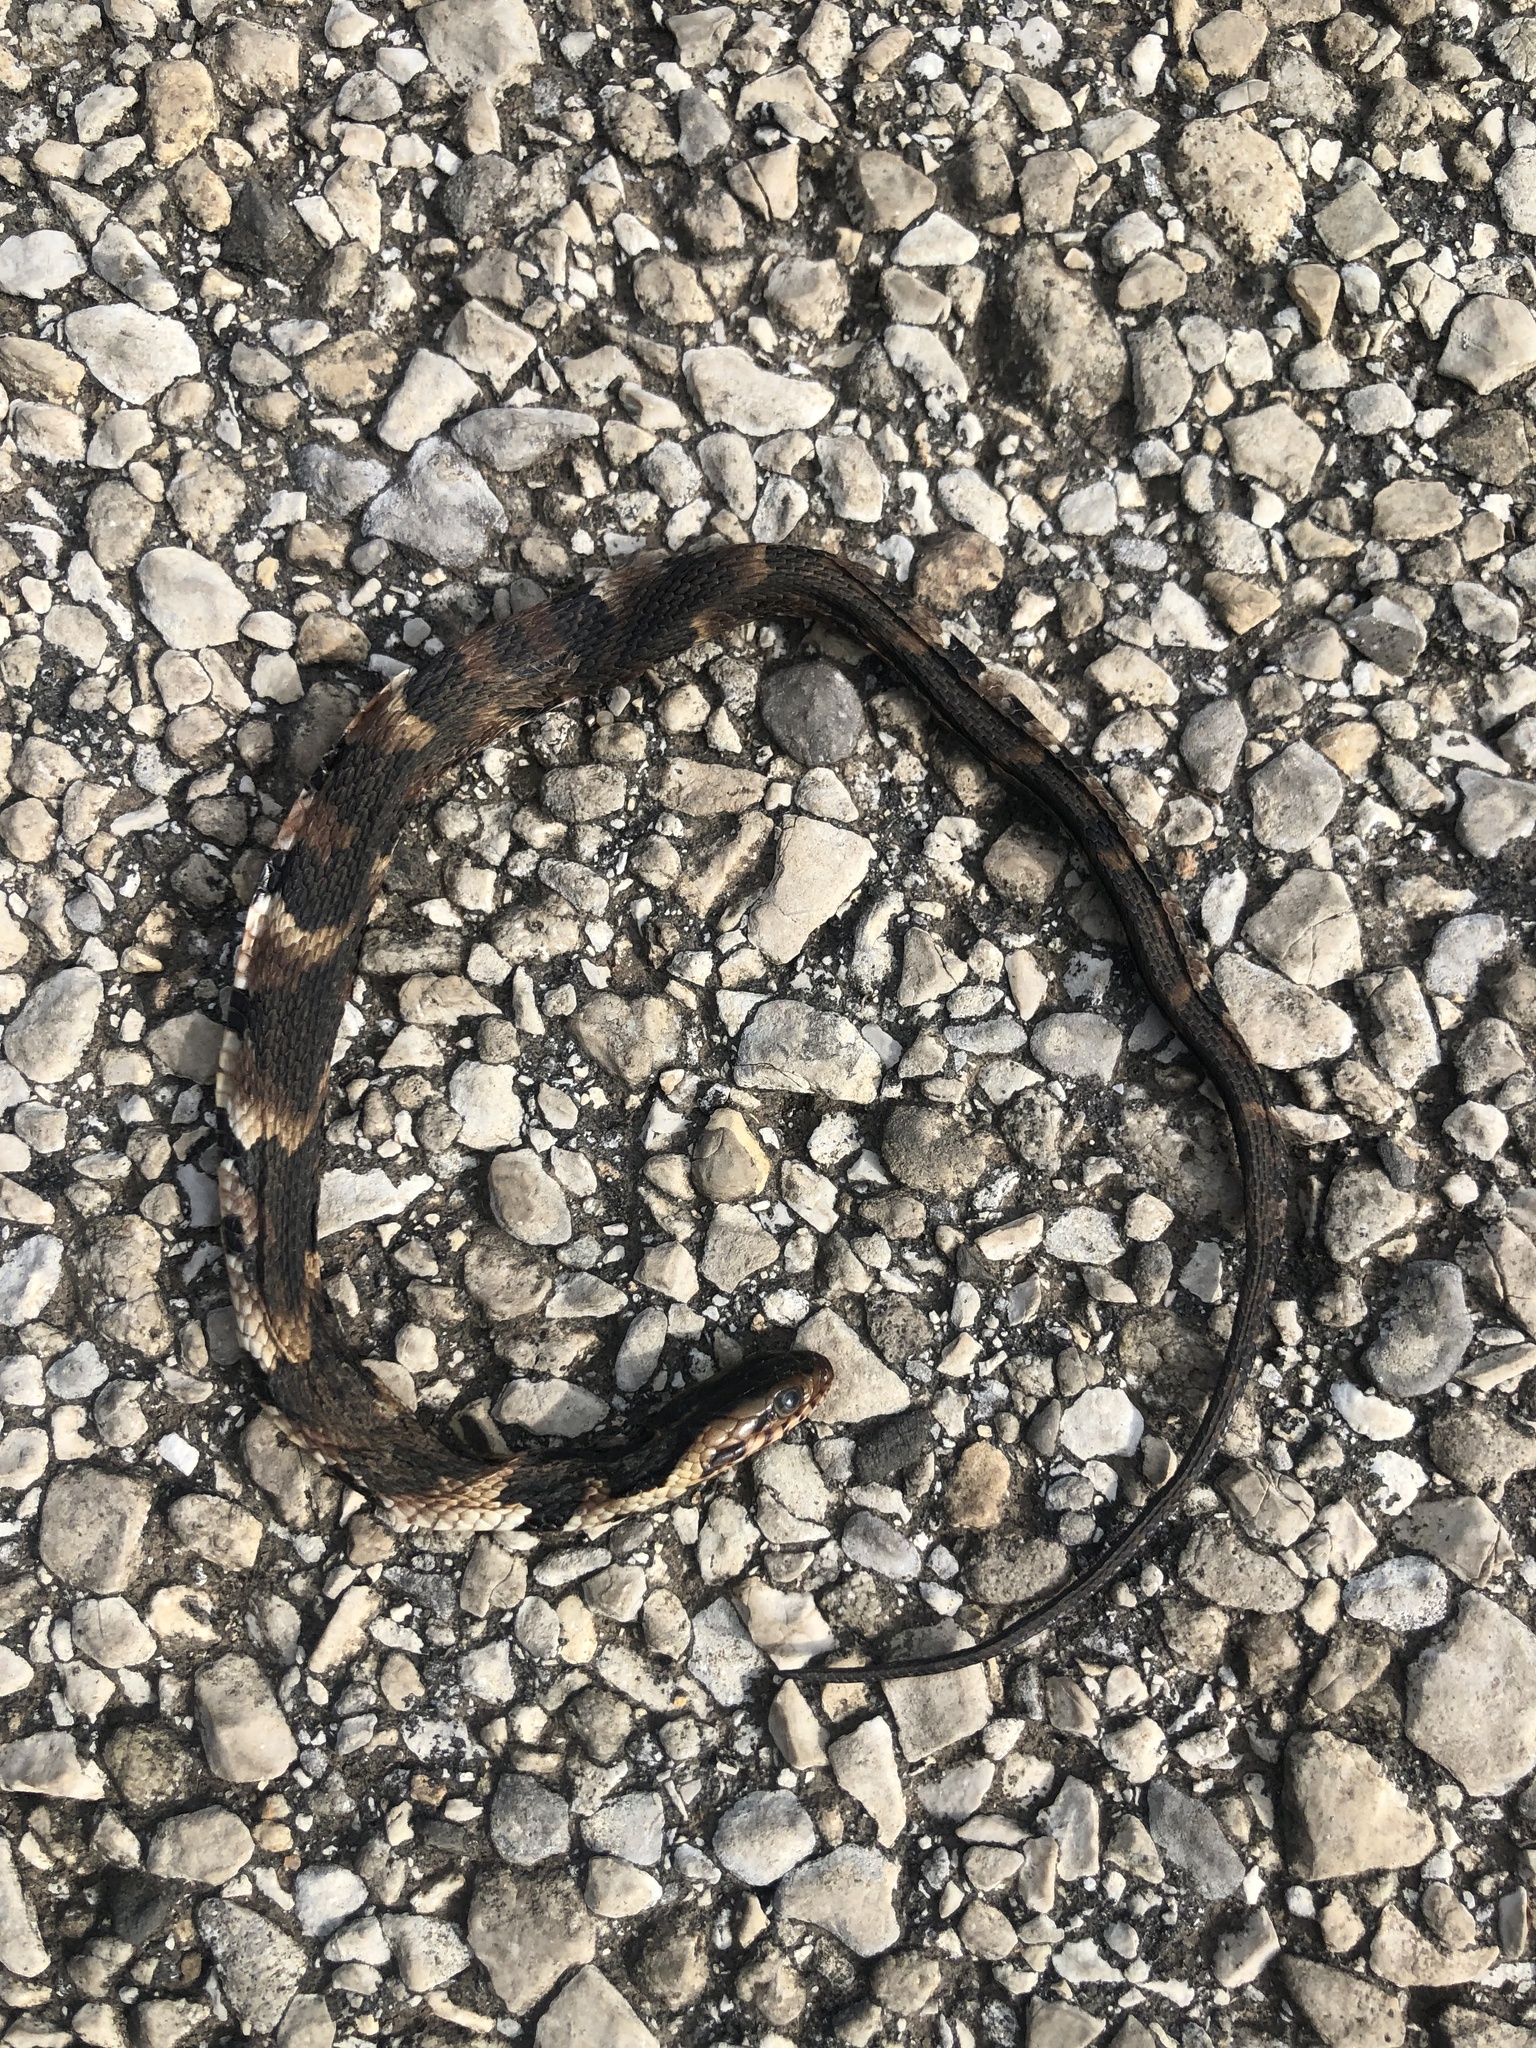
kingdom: Animalia
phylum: Chordata
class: Squamata
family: Colubridae
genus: Nerodia
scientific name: Nerodia fasciata
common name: Southern water snake
